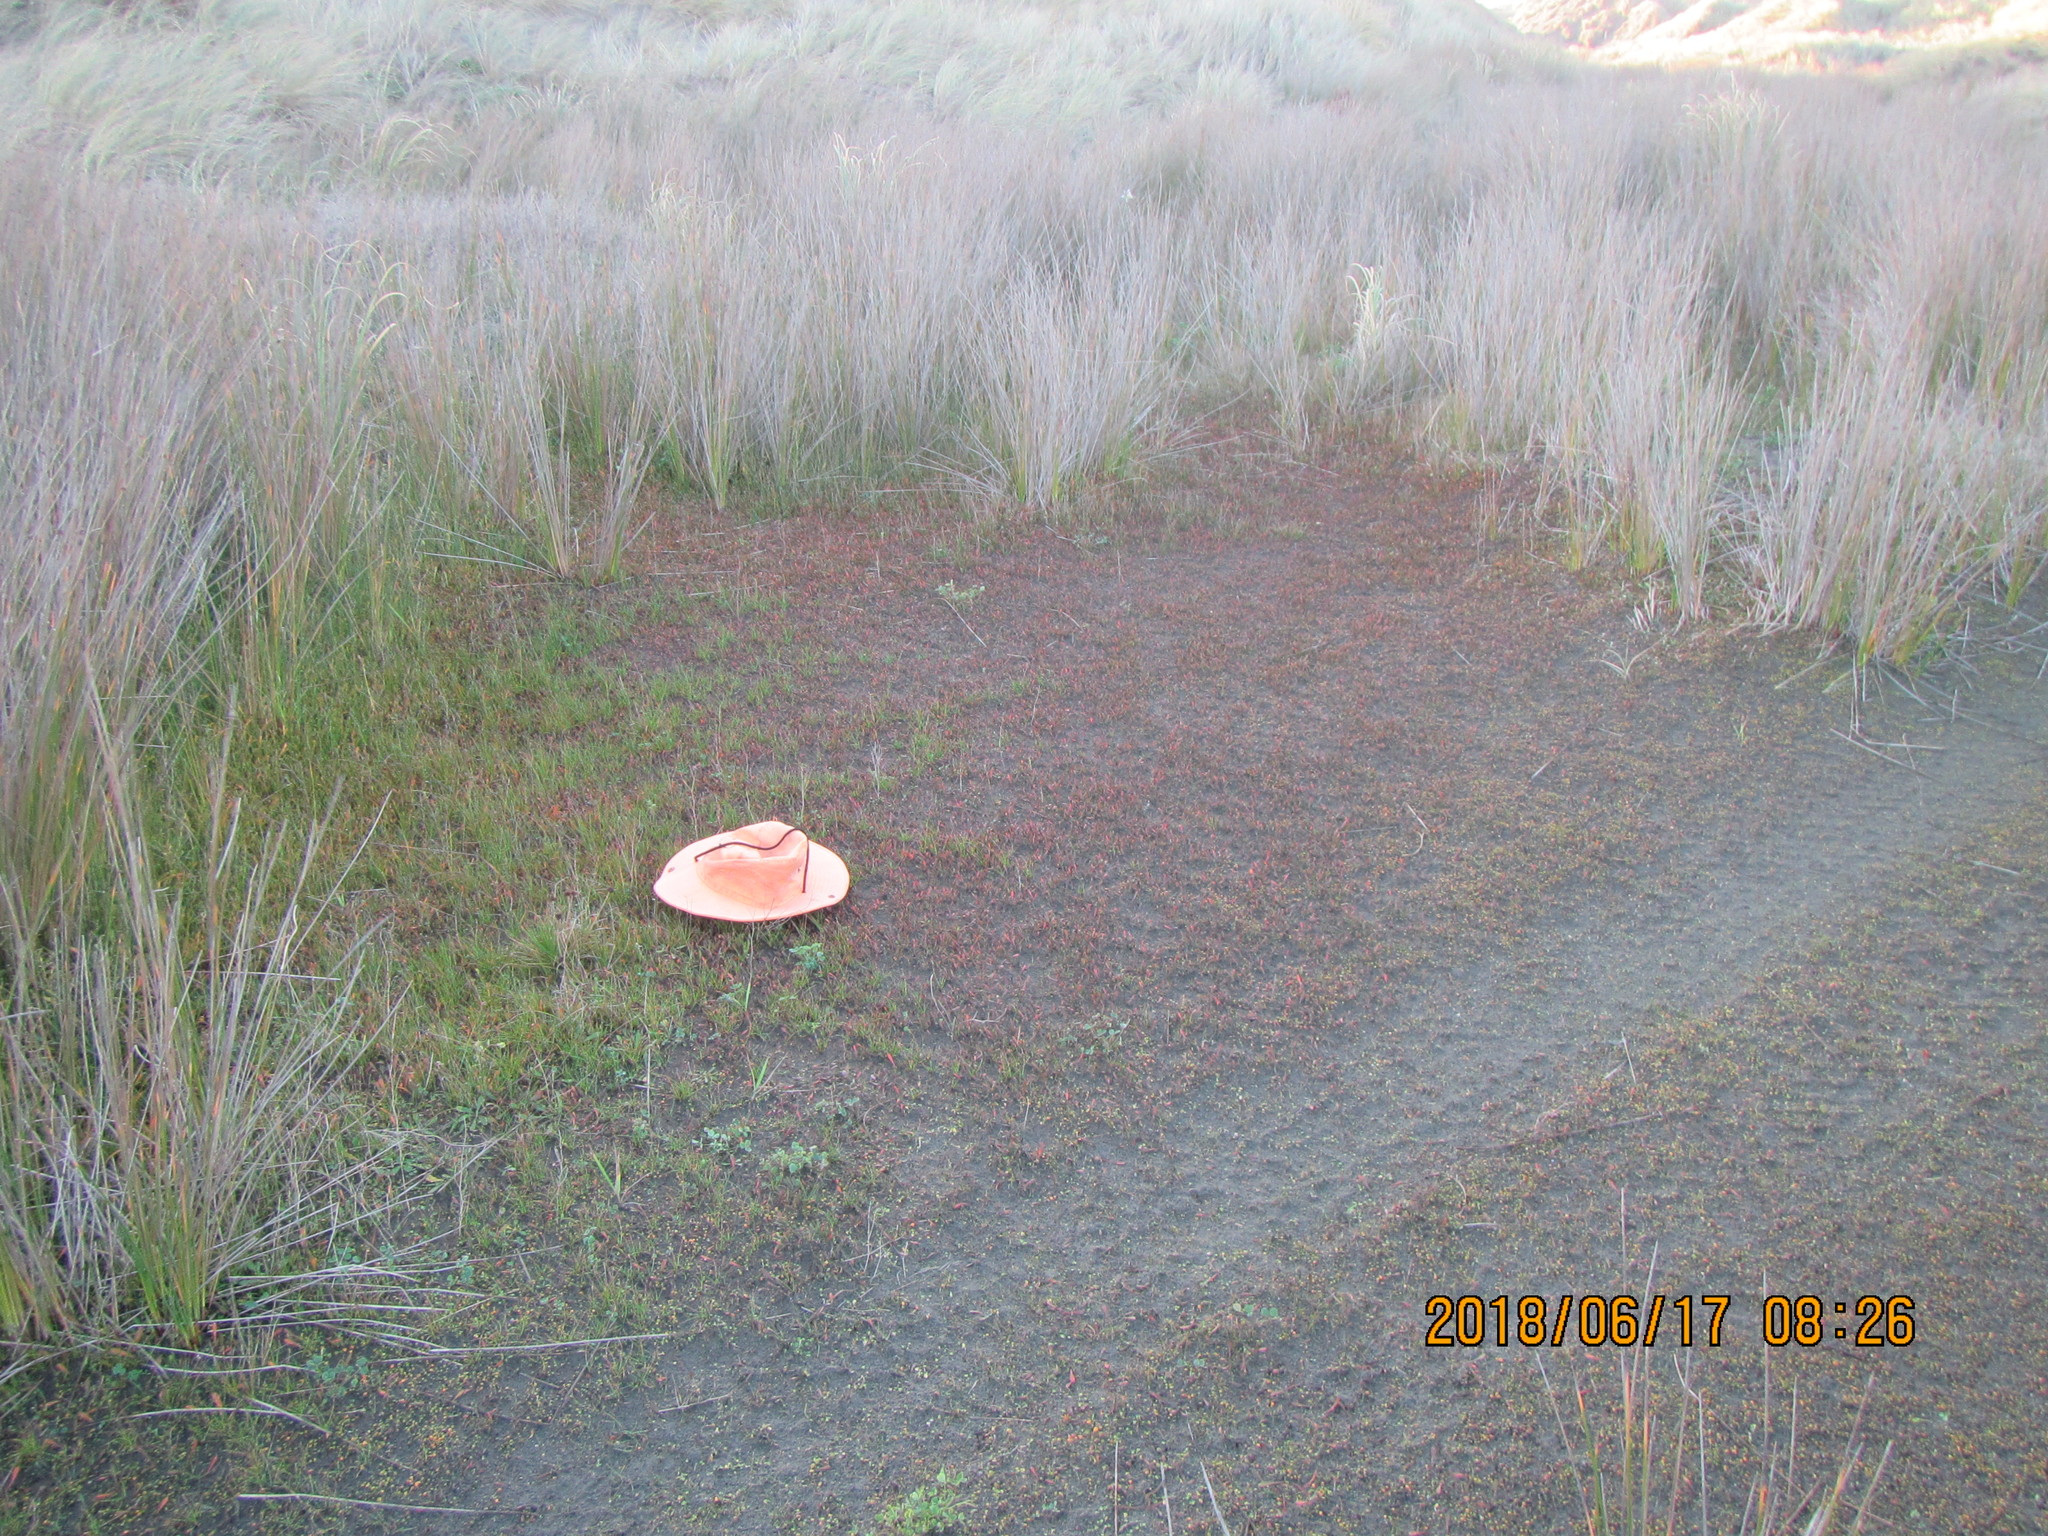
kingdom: Plantae
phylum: Tracheophyta
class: Magnoliopsida
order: Asterales
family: Goodeniaceae
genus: Goodenia
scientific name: Goodenia radicans
